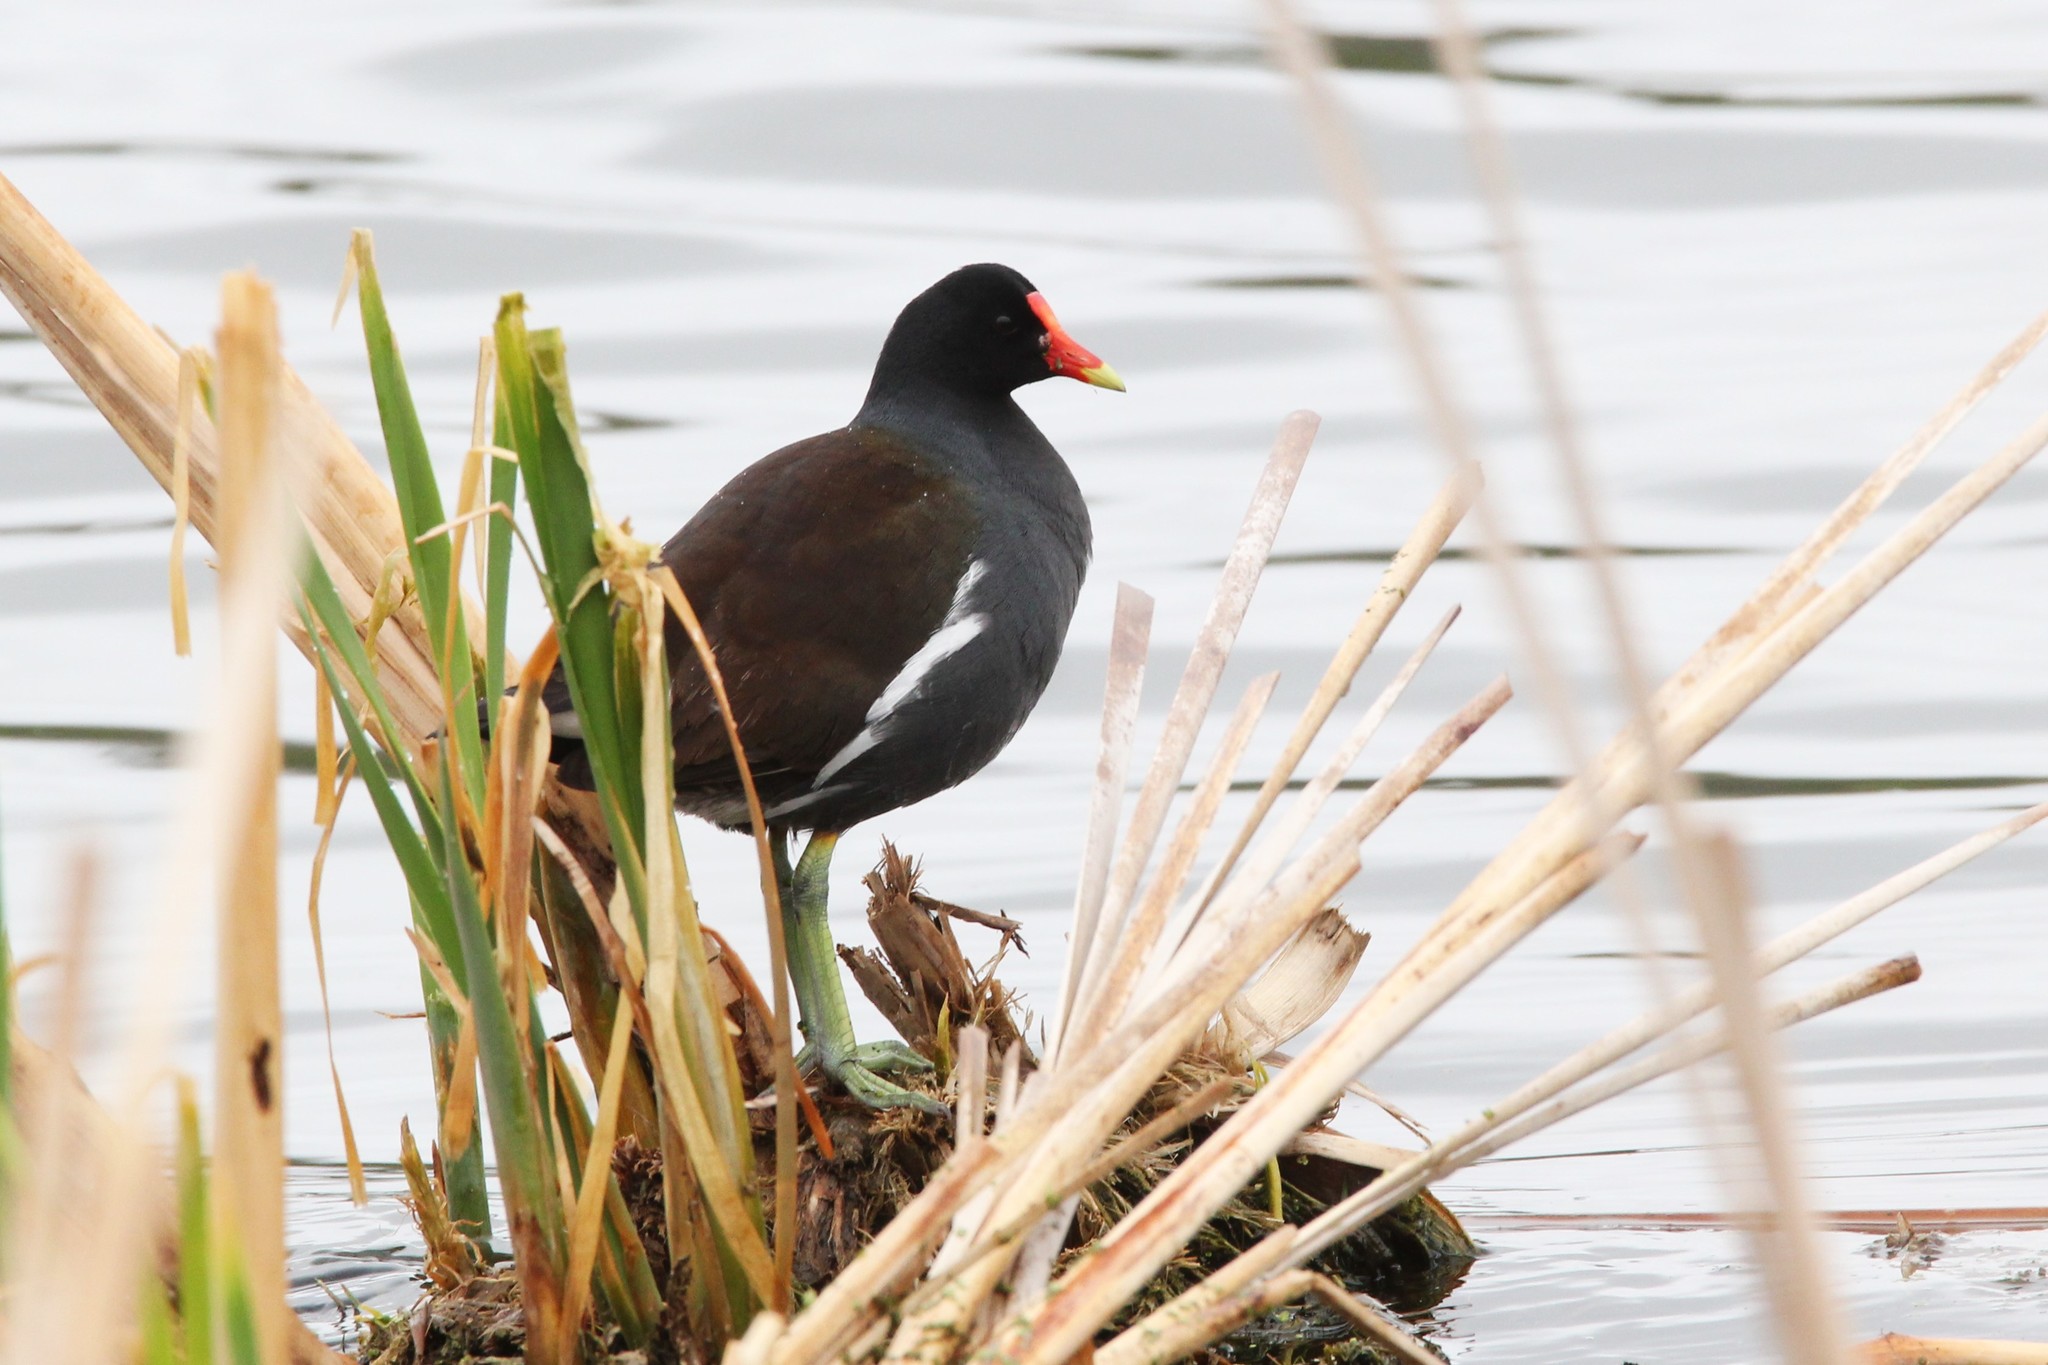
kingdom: Animalia
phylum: Chordata
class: Aves
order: Gruiformes
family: Rallidae
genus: Gallinula
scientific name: Gallinula chloropus
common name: Common moorhen
